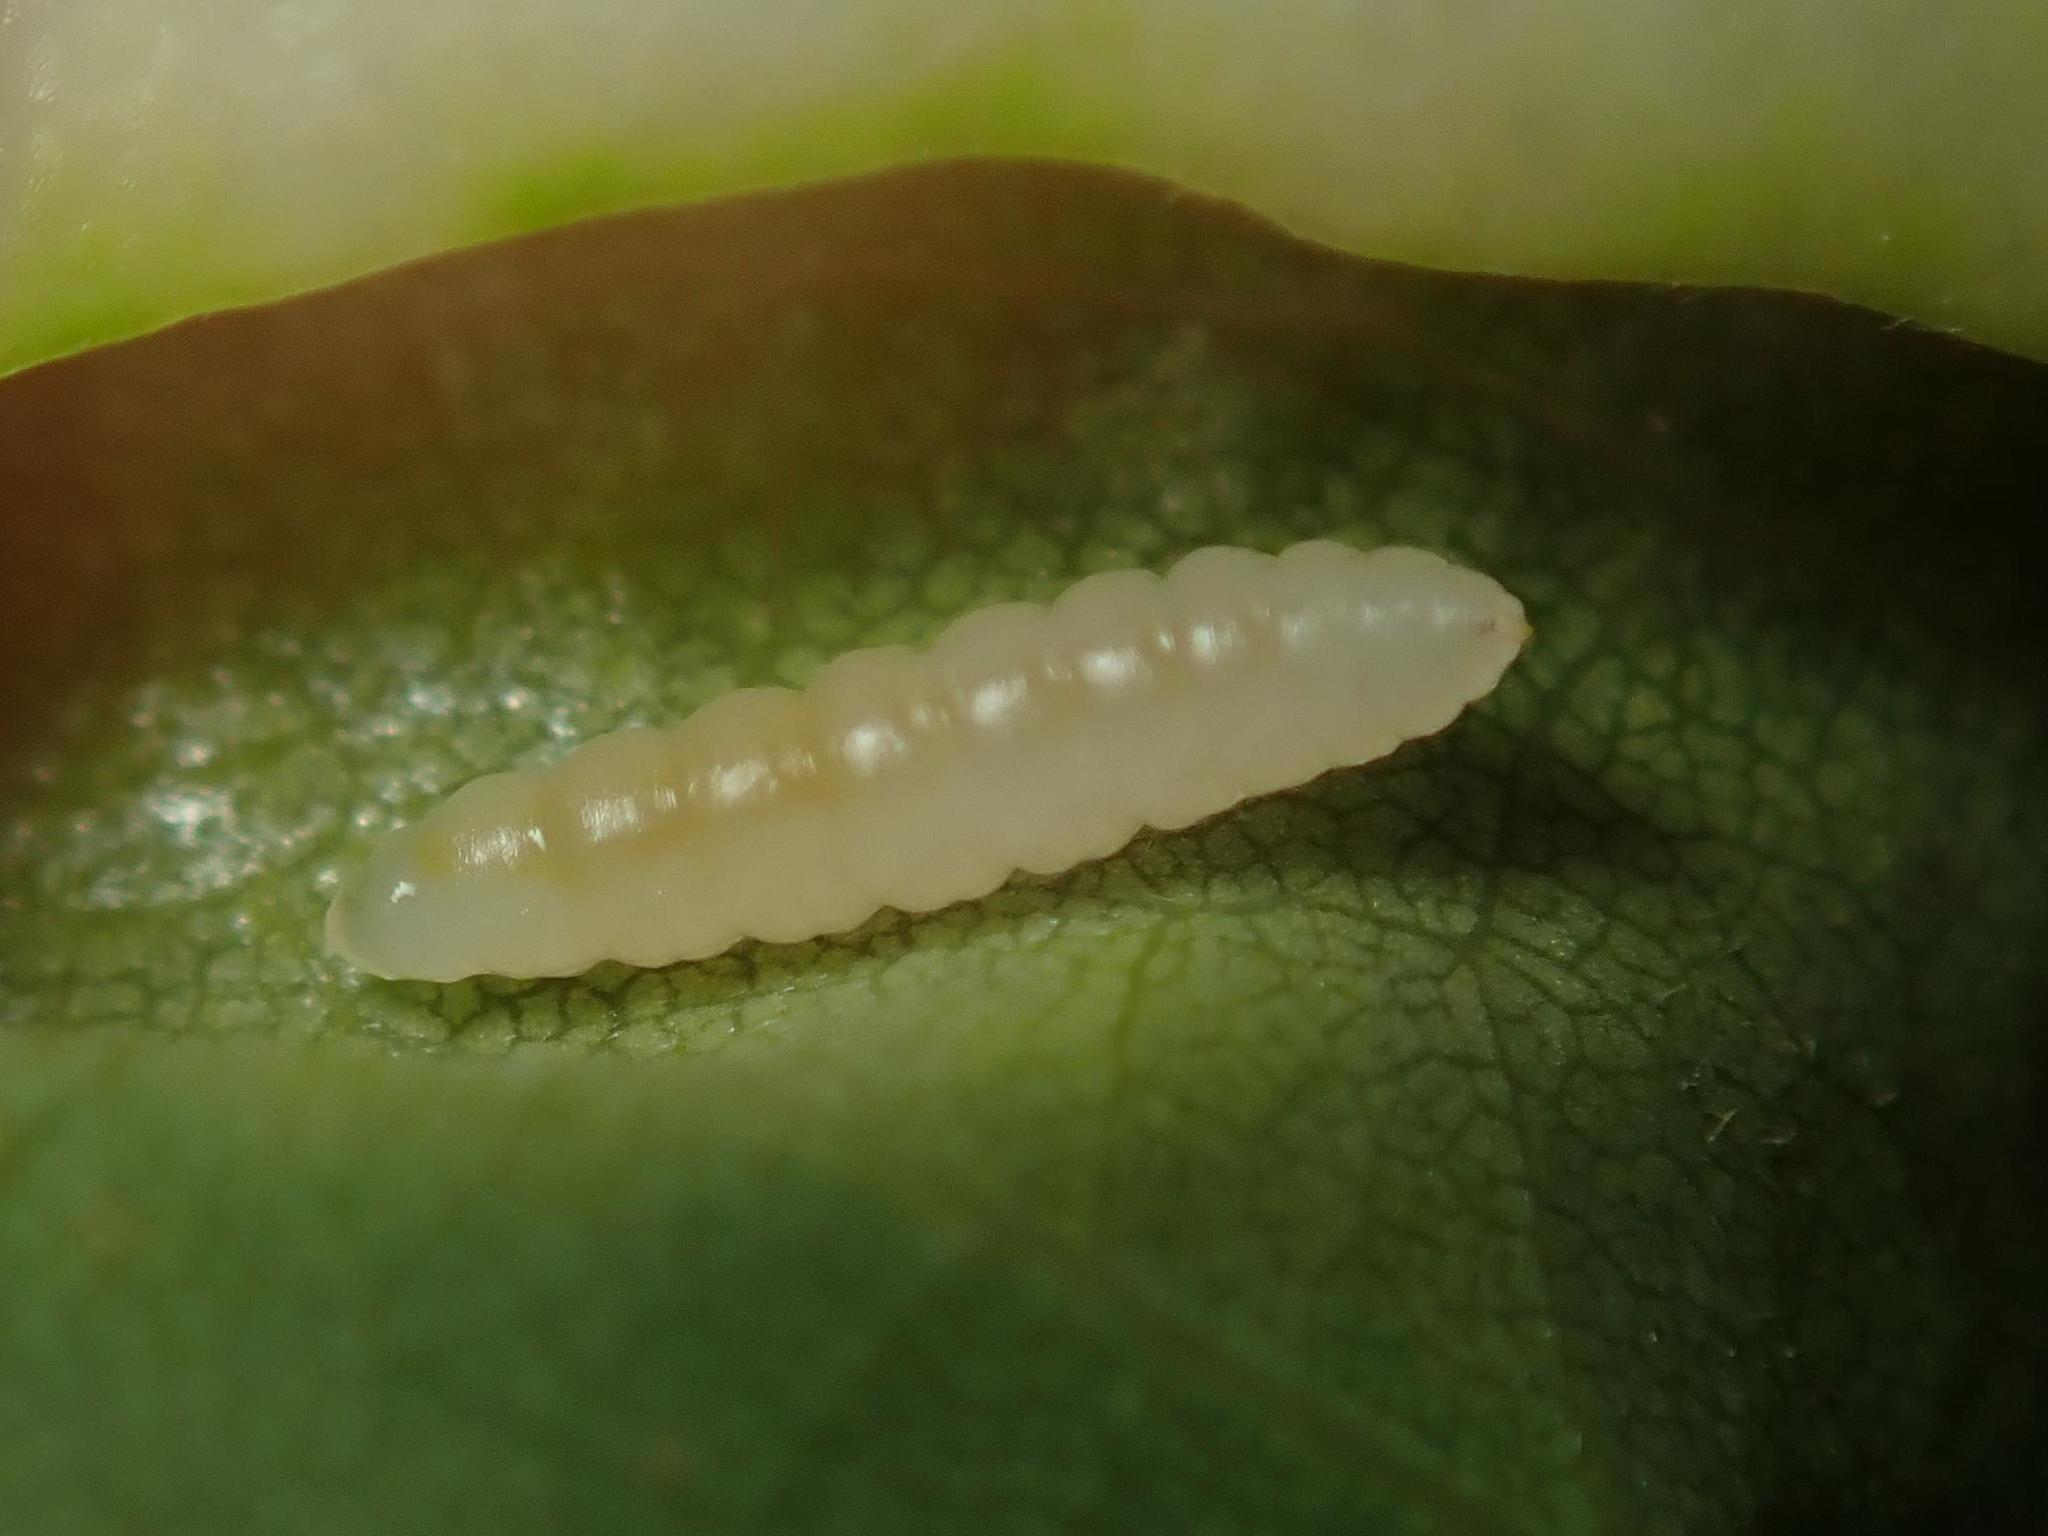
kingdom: Animalia
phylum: Arthropoda
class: Insecta
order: Diptera
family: Cecidomyiidae
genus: Obolodiplosis
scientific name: Obolodiplosis robiniae
